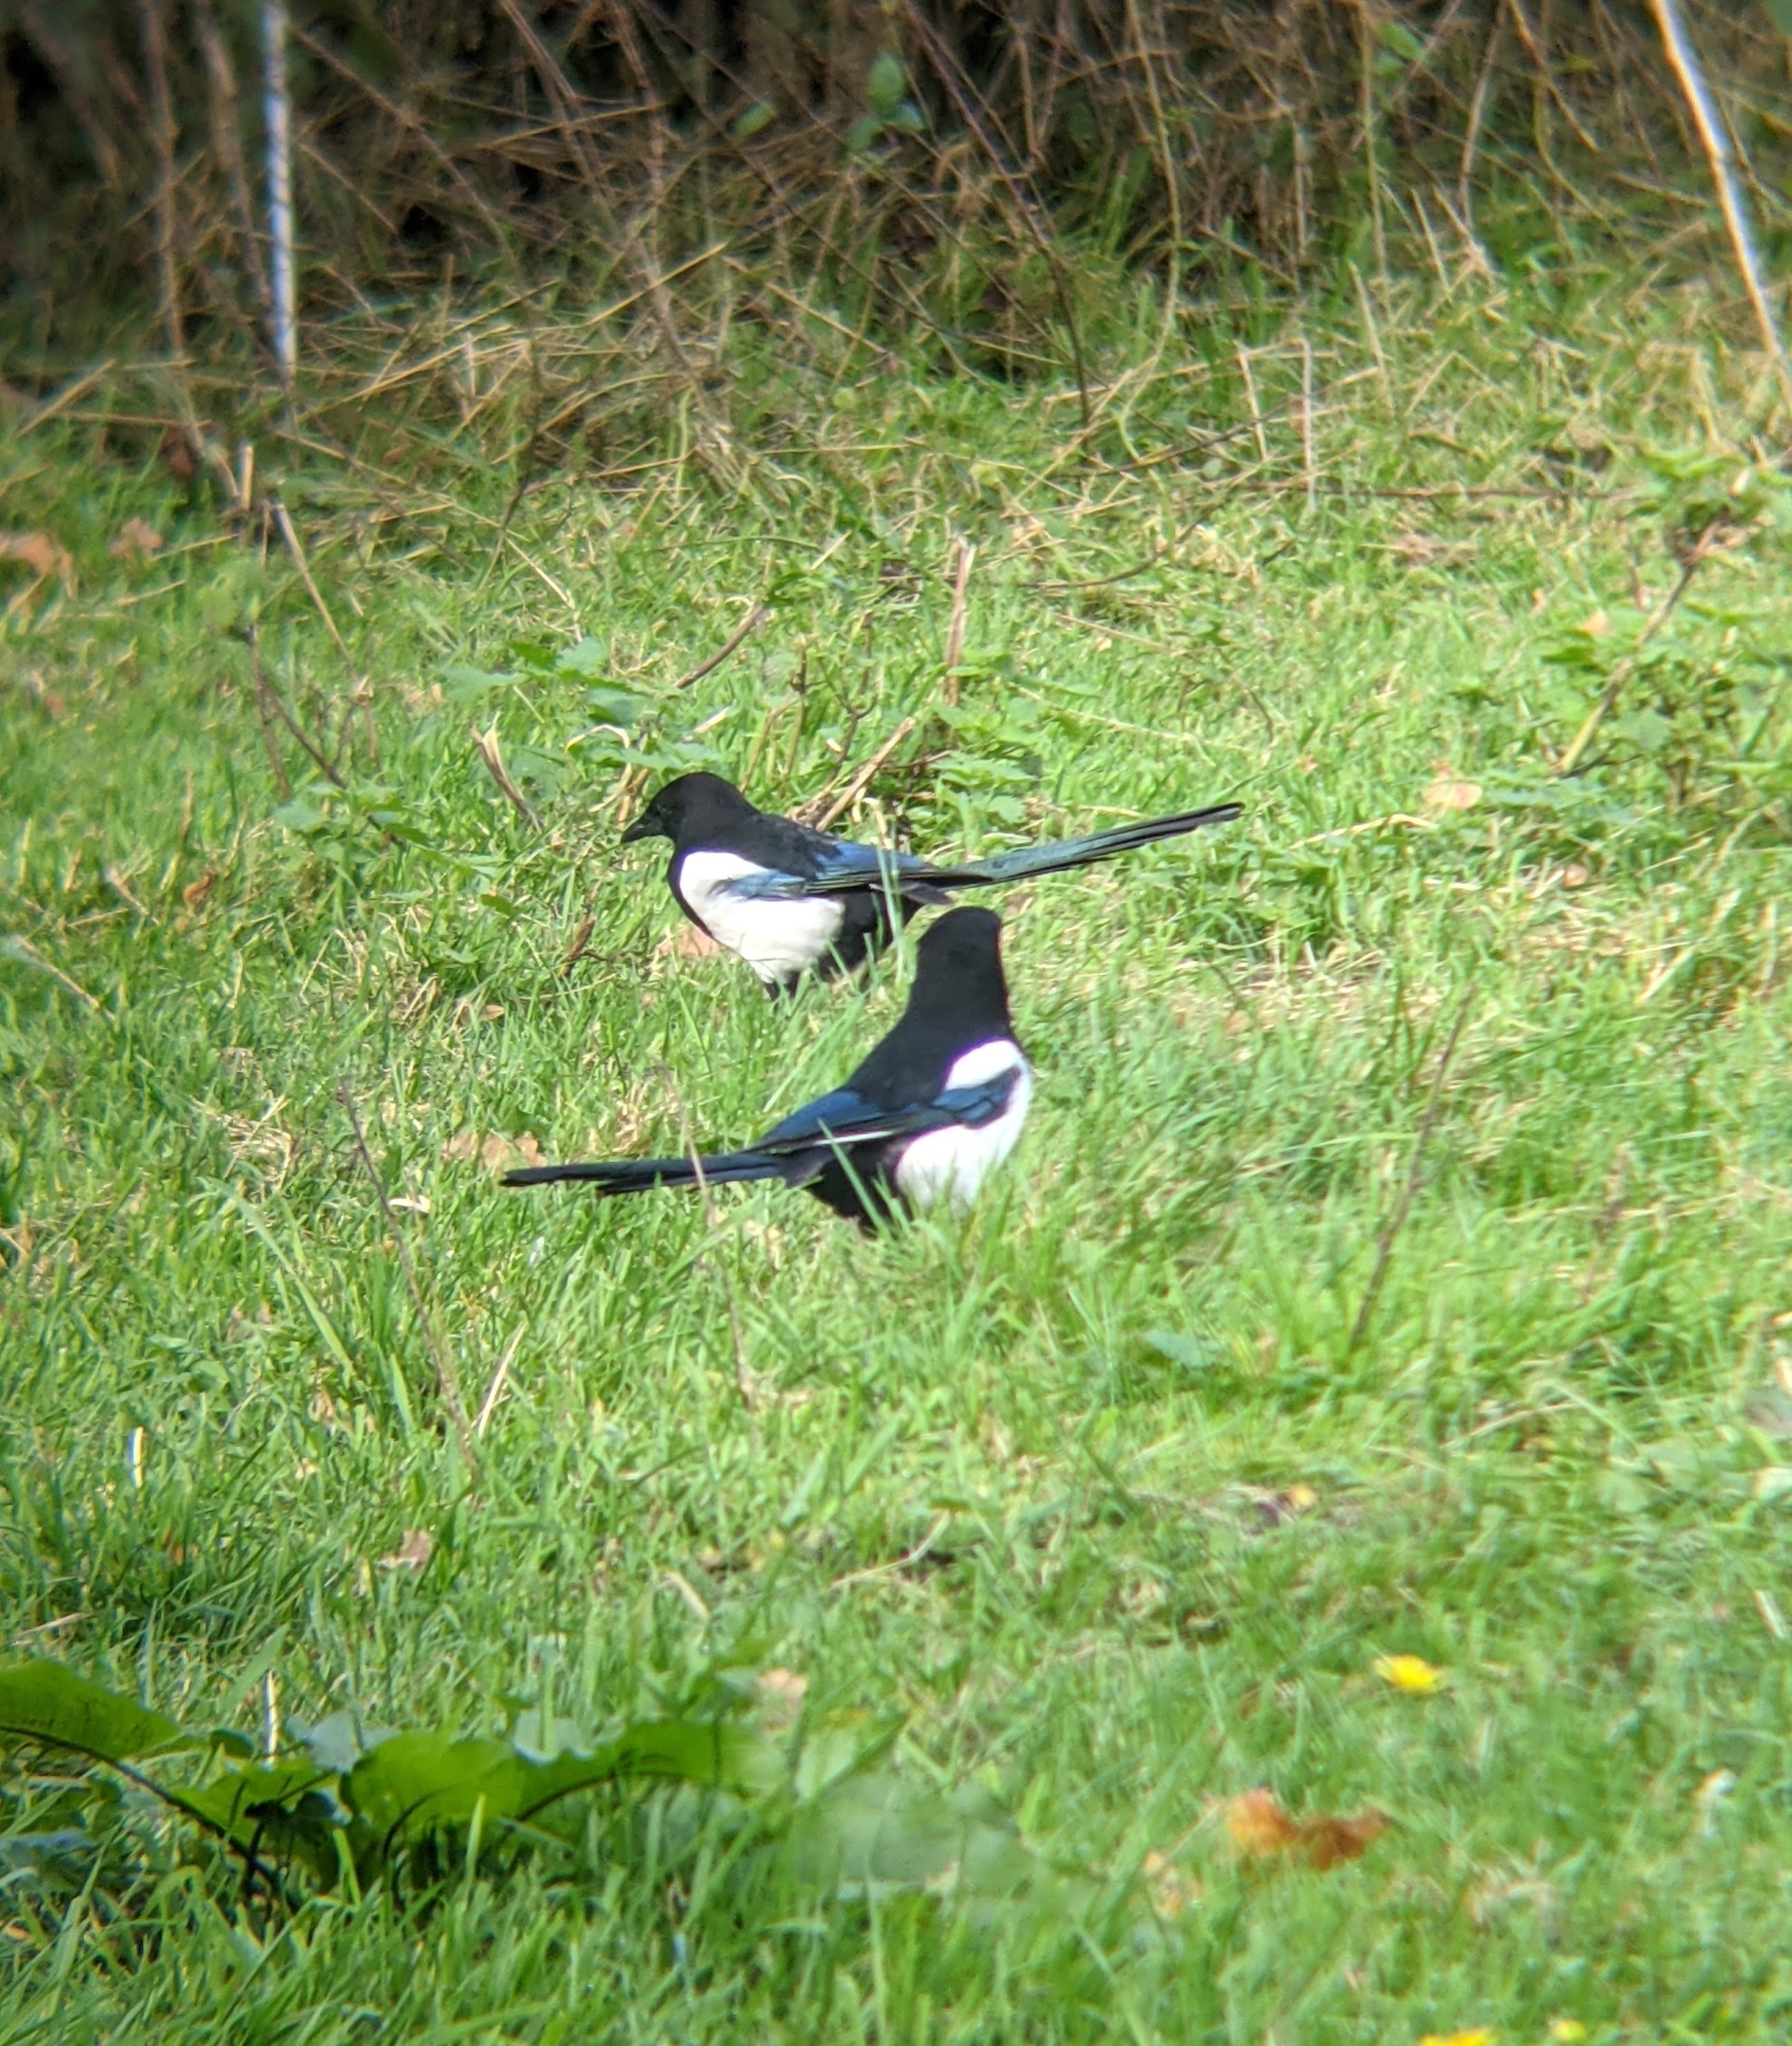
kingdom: Animalia
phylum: Chordata
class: Aves
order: Passeriformes
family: Corvidae
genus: Pica
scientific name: Pica pica
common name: Eurasian magpie
